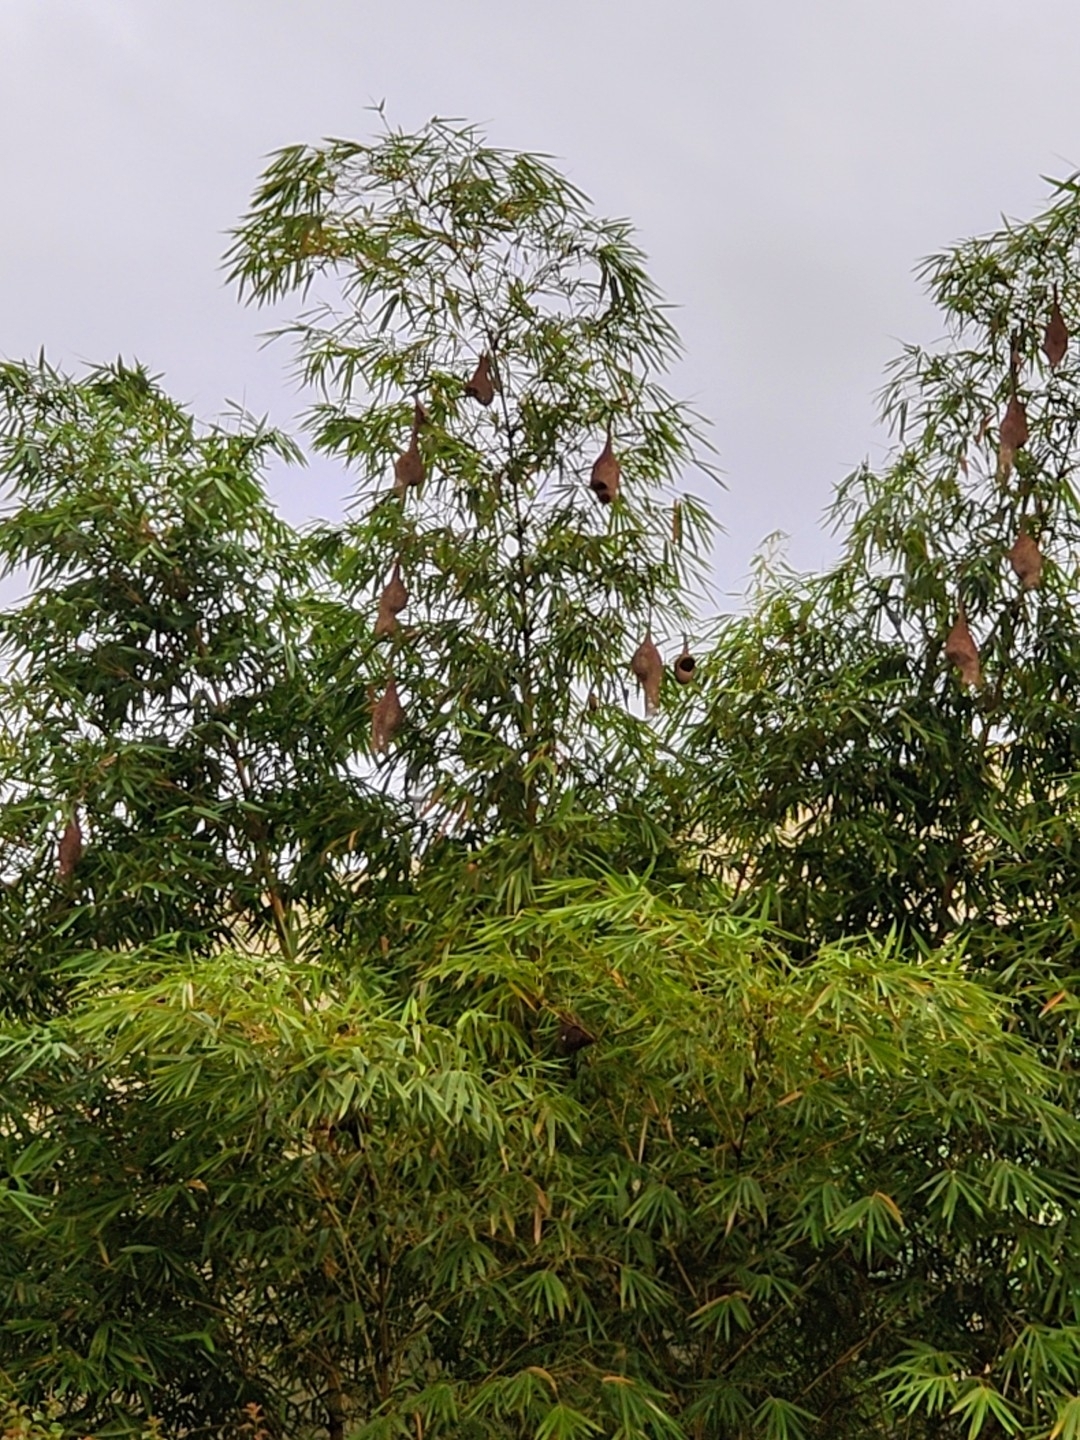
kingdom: Animalia
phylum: Chordata
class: Aves
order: Passeriformes
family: Ploceidae
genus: Ploceus
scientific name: Ploceus philippinus
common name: Baya weaver
